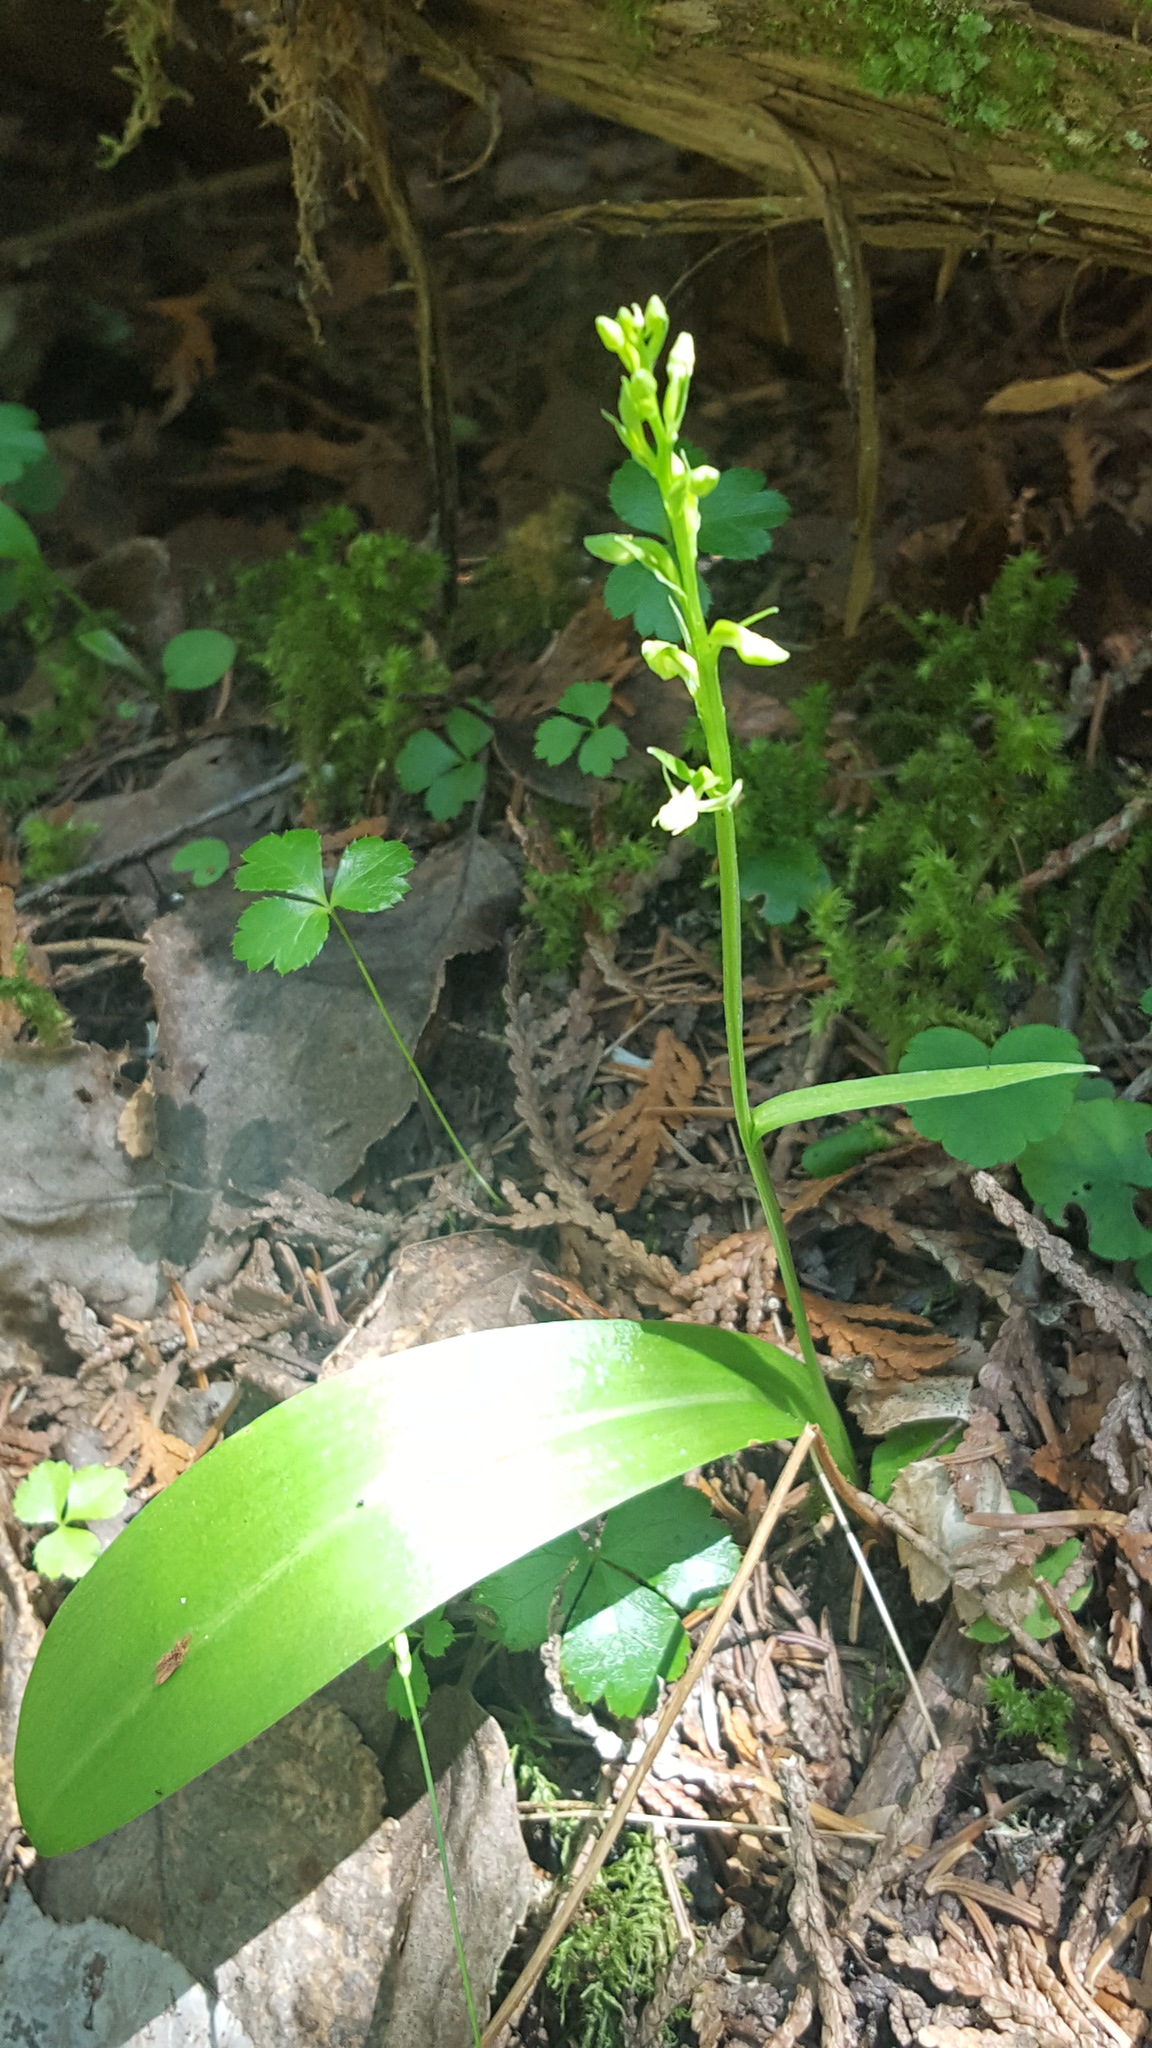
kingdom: Plantae
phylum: Tracheophyta
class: Liliopsida
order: Asparagales
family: Orchidaceae
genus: Platanthera
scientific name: Platanthera obtusata
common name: Blunt bog orchid
